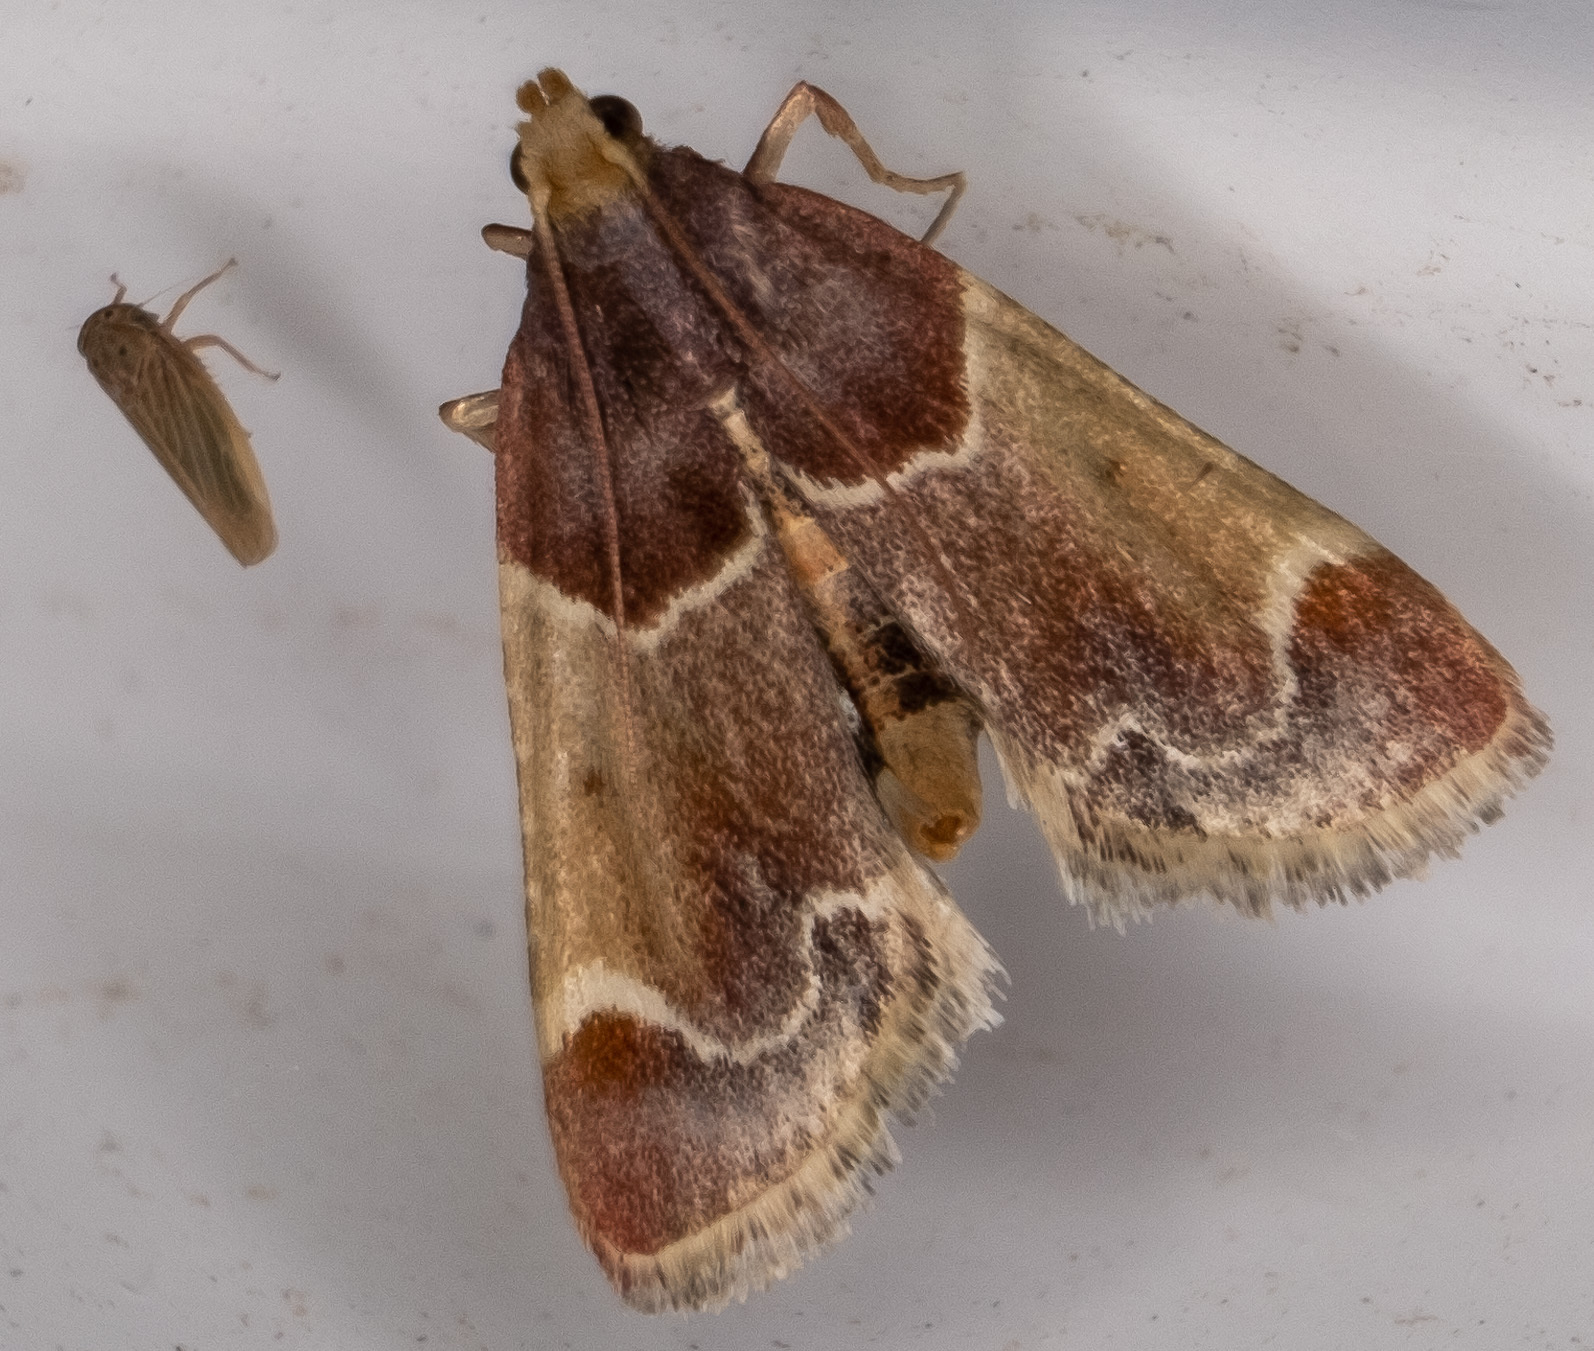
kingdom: Animalia
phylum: Arthropoda
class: Insecta
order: Lepidoptera
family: Pyralidae
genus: Pyralis
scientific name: Pyralis farinalis
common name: Meal moth
